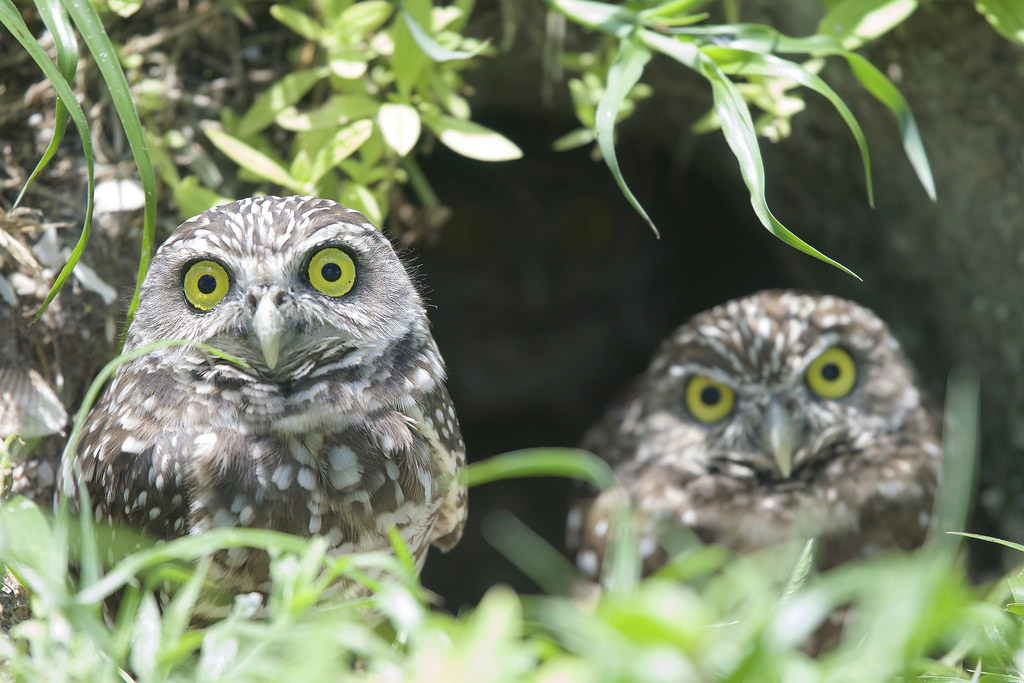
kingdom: Animalia
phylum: Chordata
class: Aves
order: Strigiformes
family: Strigidae
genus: Athene
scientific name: Athene cunicularia
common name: Burrowing owl
